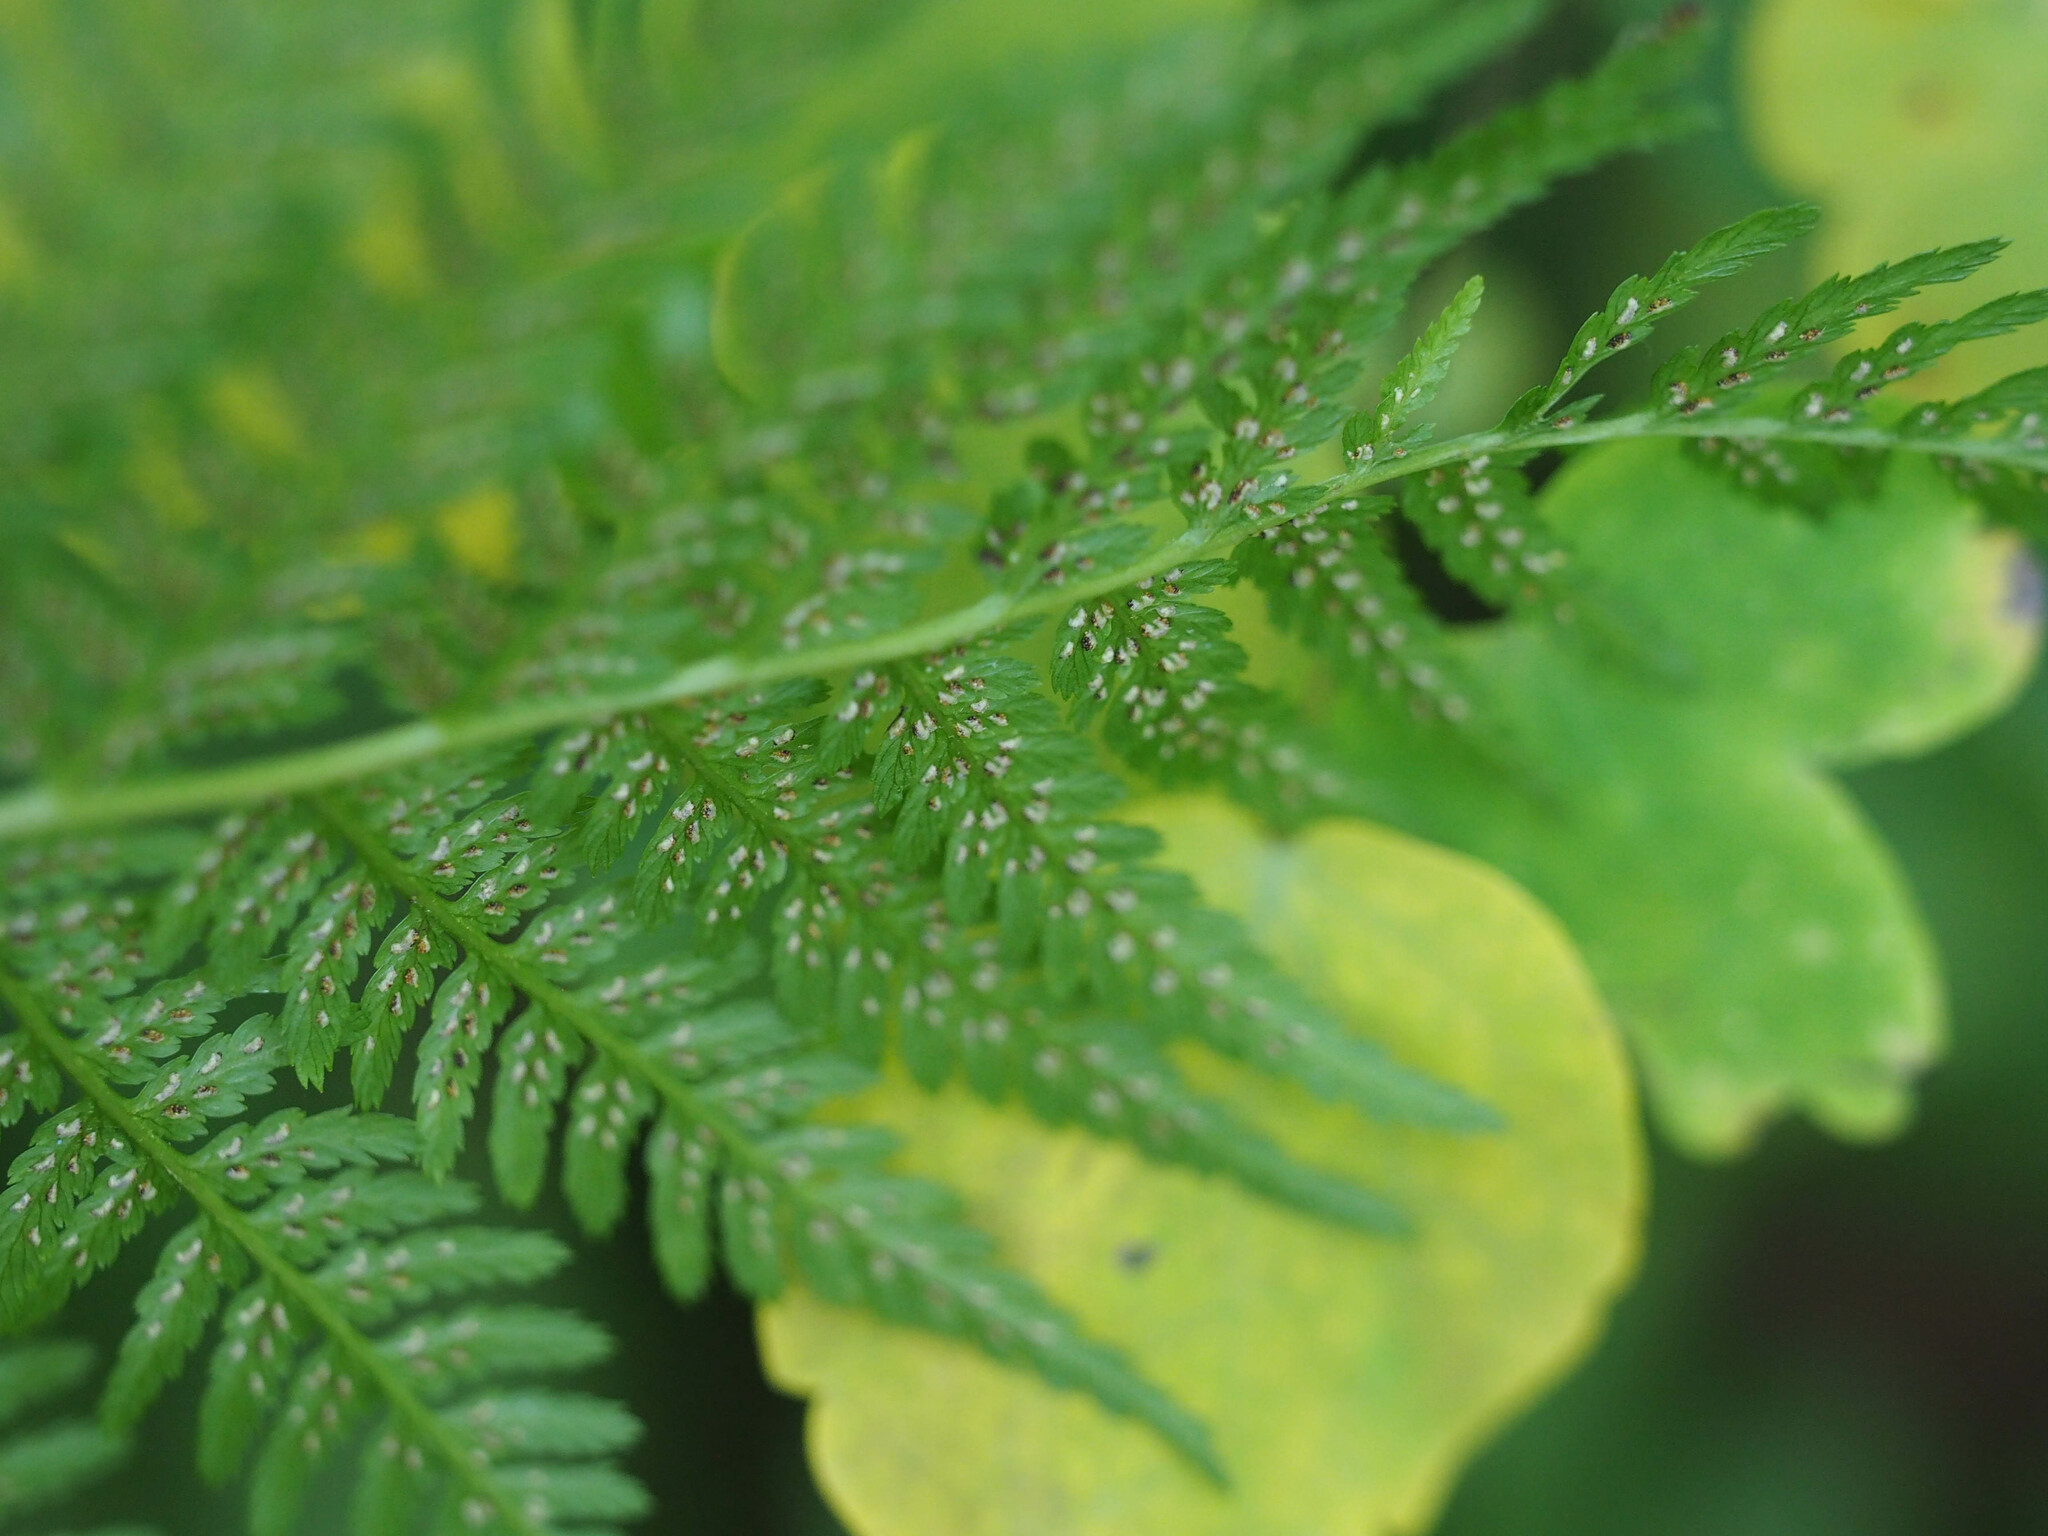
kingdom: Plantae
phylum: Tracheophyta
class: Polypodiopsida
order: Polypodiales
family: Athyriaceae
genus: Athyrium
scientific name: Athyrium asplenioides
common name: Southern lady fern
